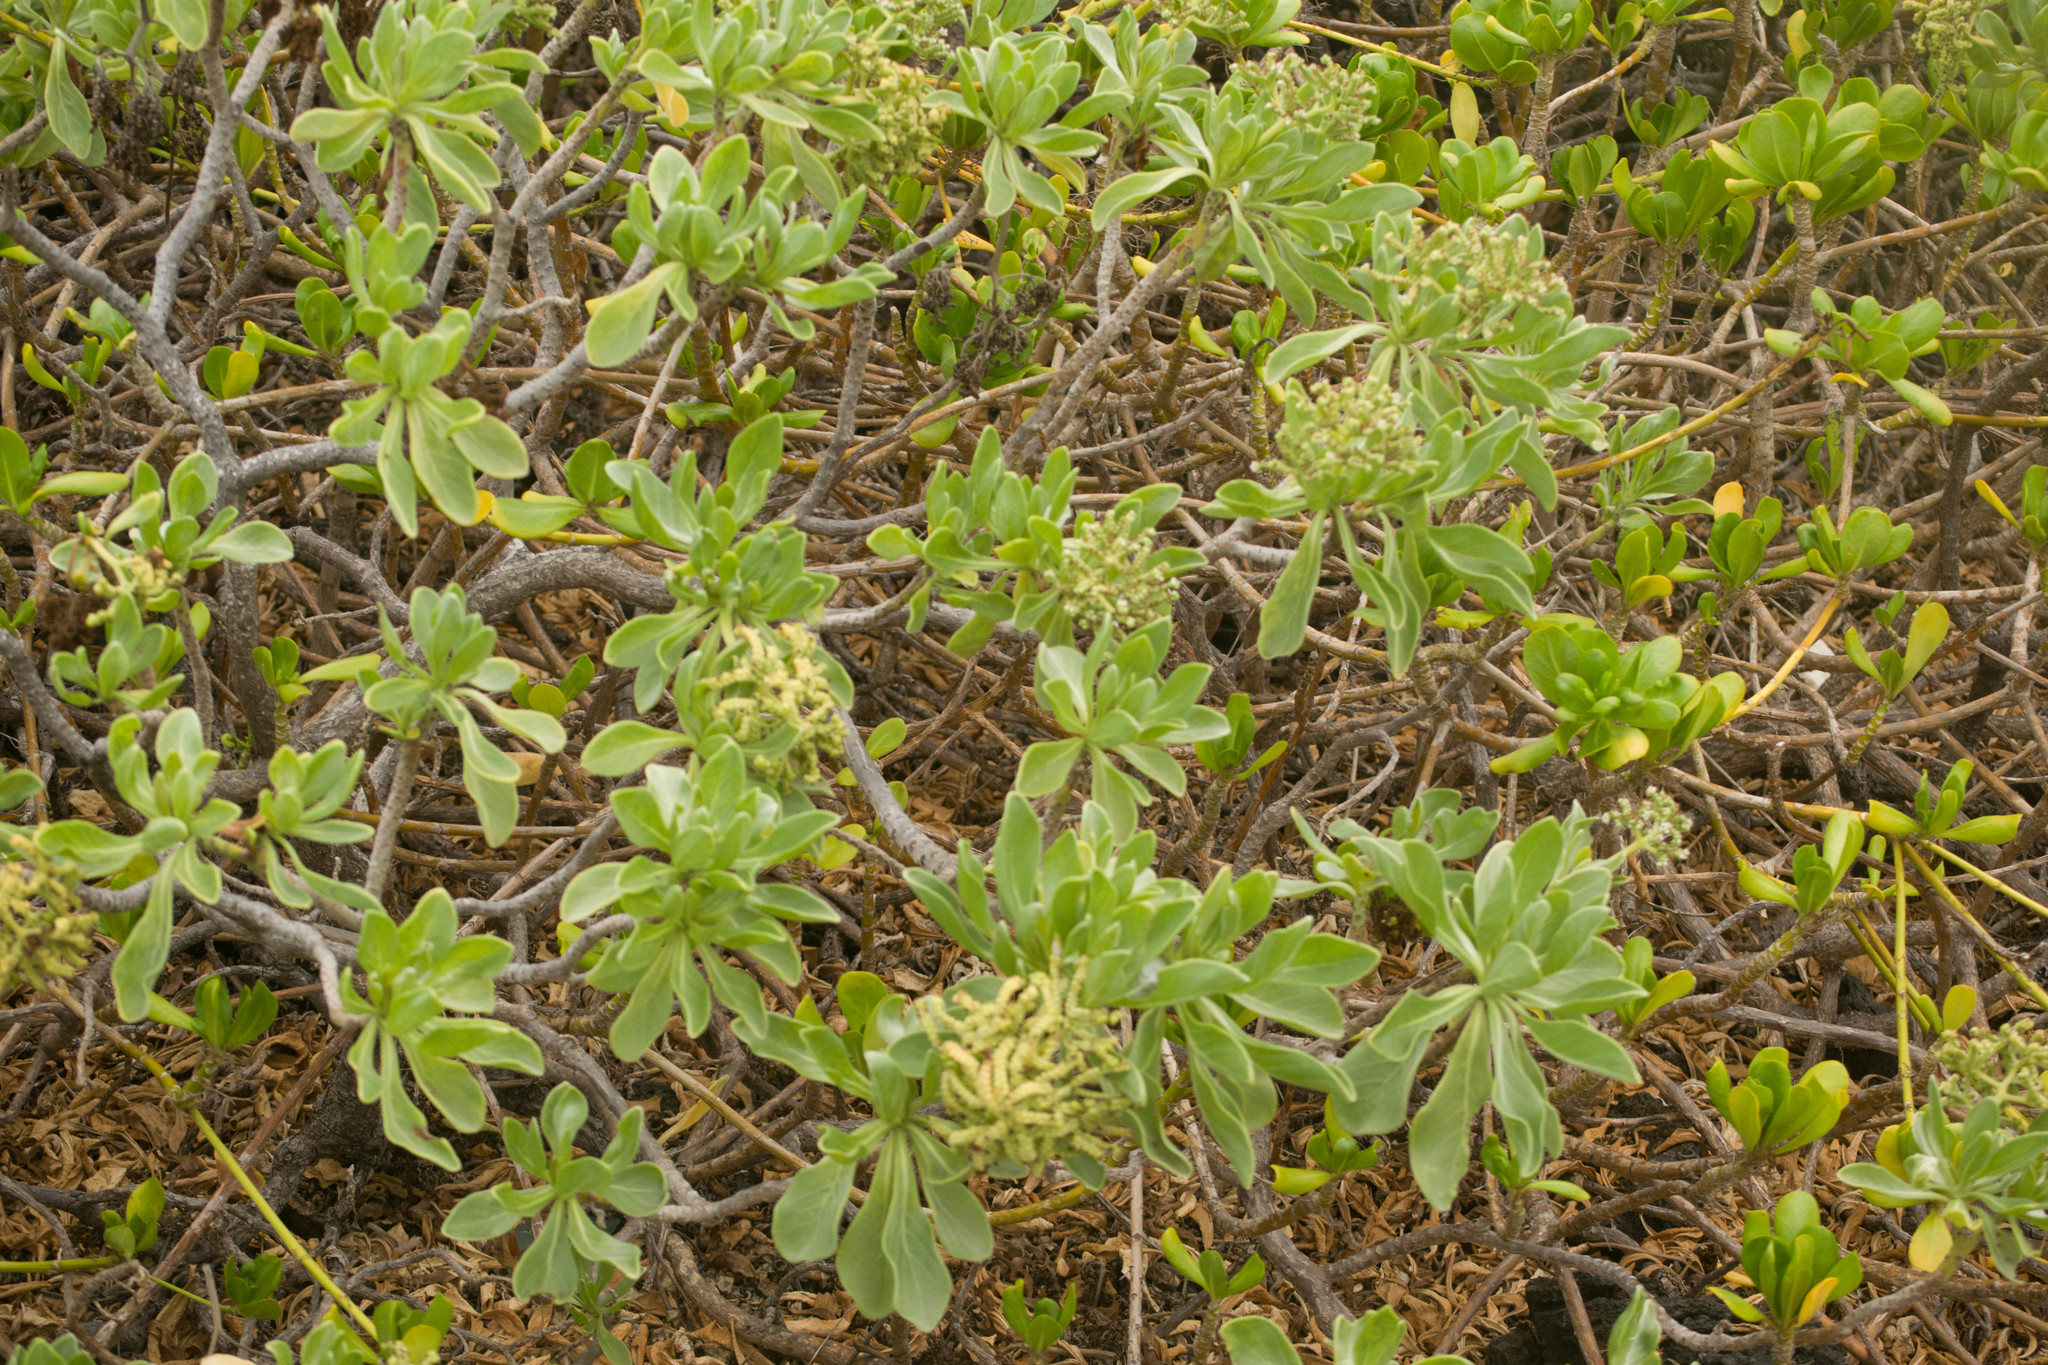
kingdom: Plantae
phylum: Tracheophyta
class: Magnoliopsida
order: Boraginales
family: Heliotropiaceae
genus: Heliotropium
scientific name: Heliotropium velutinum
